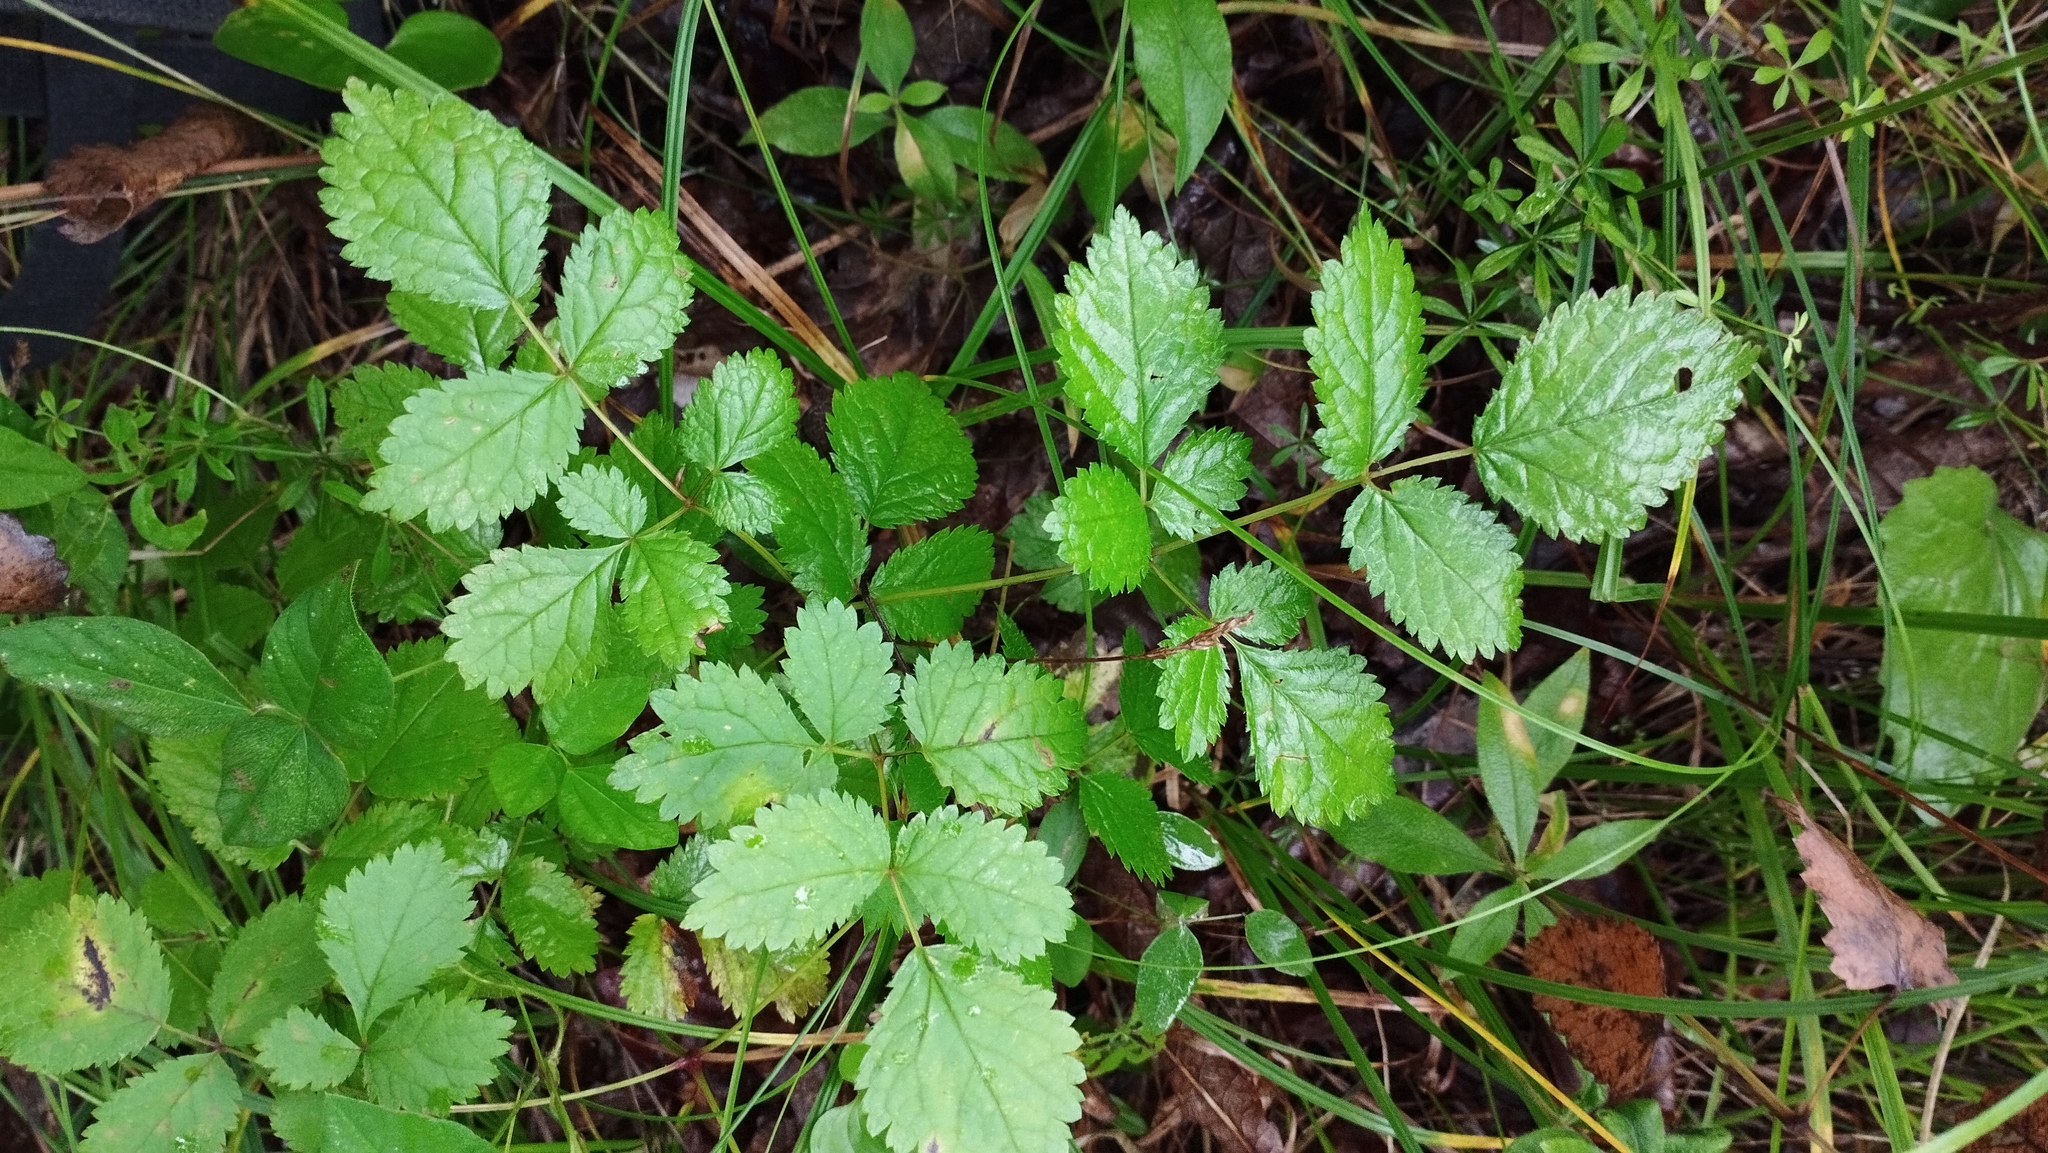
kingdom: Plantae
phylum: Tracheophyta
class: Magnoliopsida
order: Saxifragales
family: Saxifragaceae
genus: Astilbe
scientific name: Astilbe rubra
